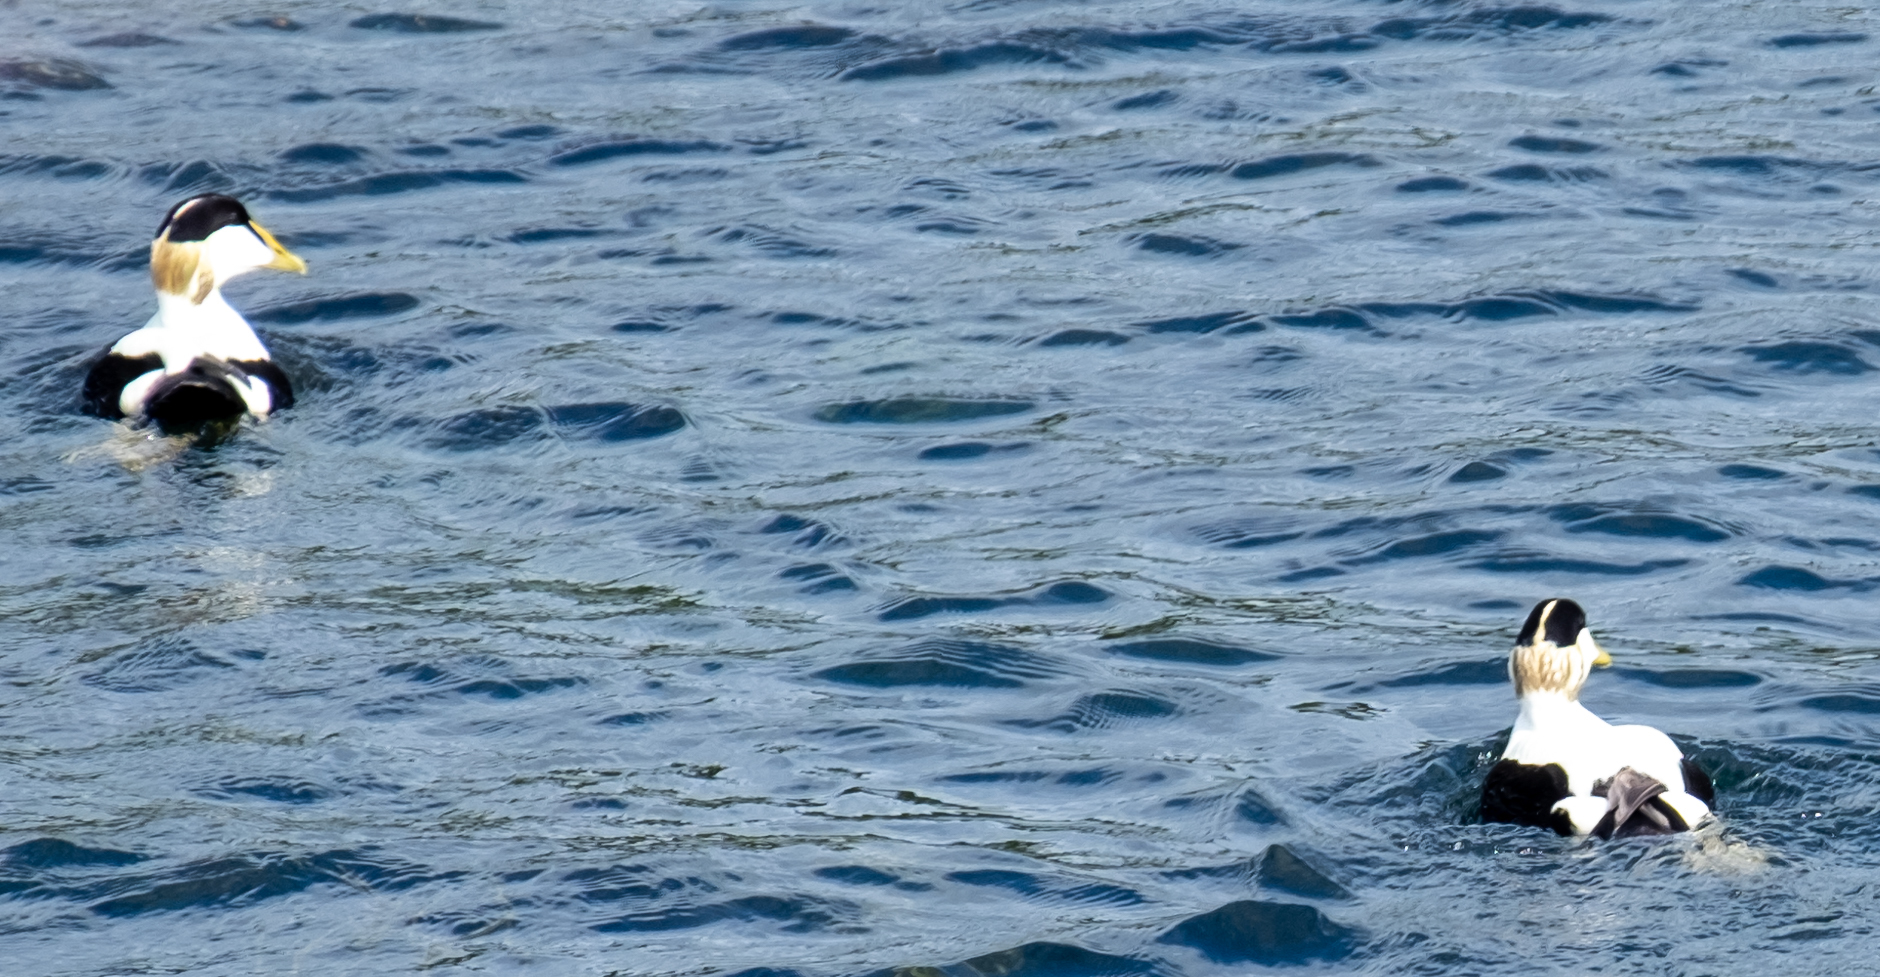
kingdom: Animalia
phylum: Chordata
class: Aves
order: Anseriformes
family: Anatidae
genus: Somateria
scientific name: Somateria mollissima
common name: Common eider
